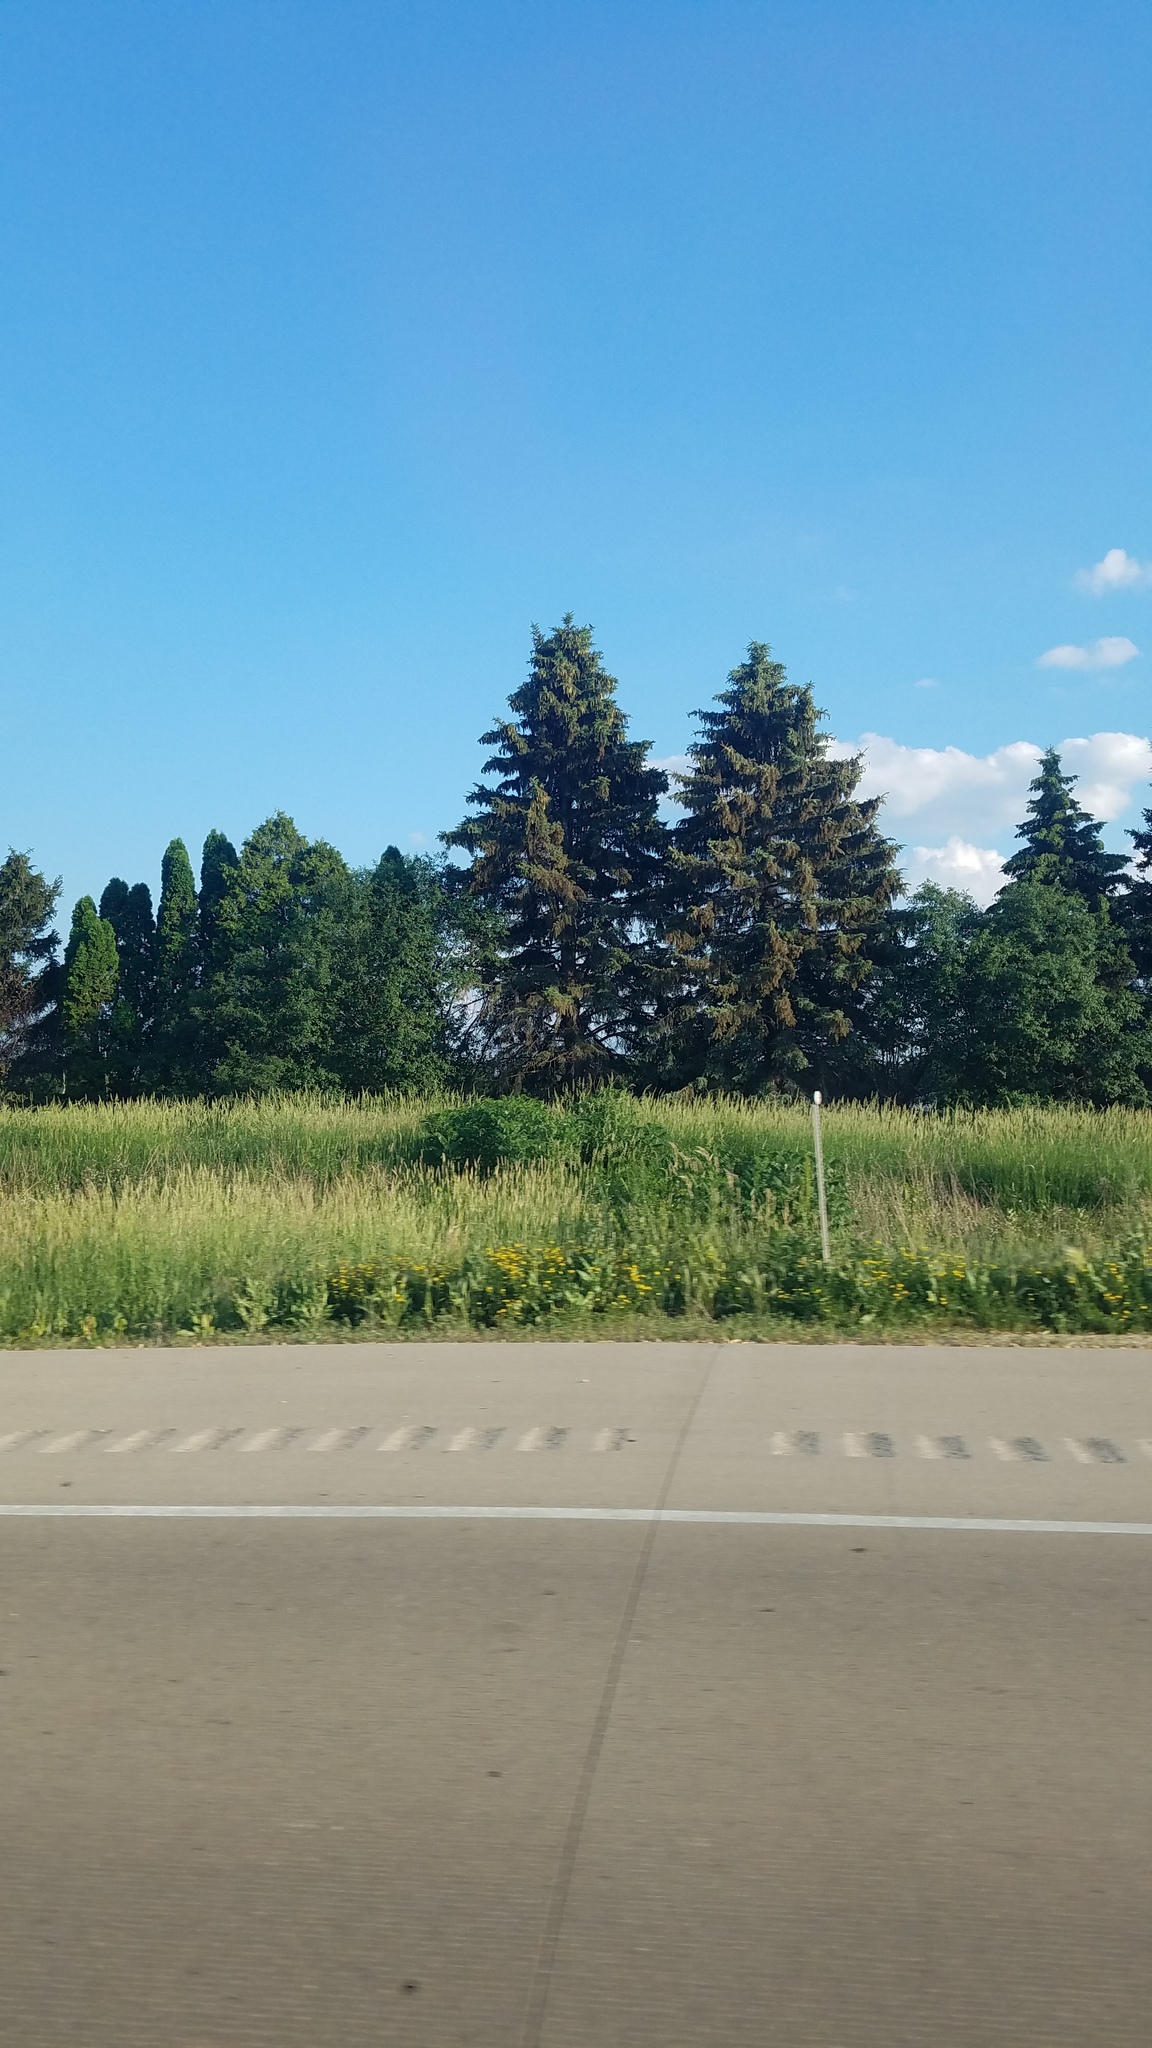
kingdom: Plantae
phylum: Tracheophyta
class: Pinopsida
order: Pinales
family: Pinaceae
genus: Picea
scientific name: Picea abies
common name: Norway spruce
